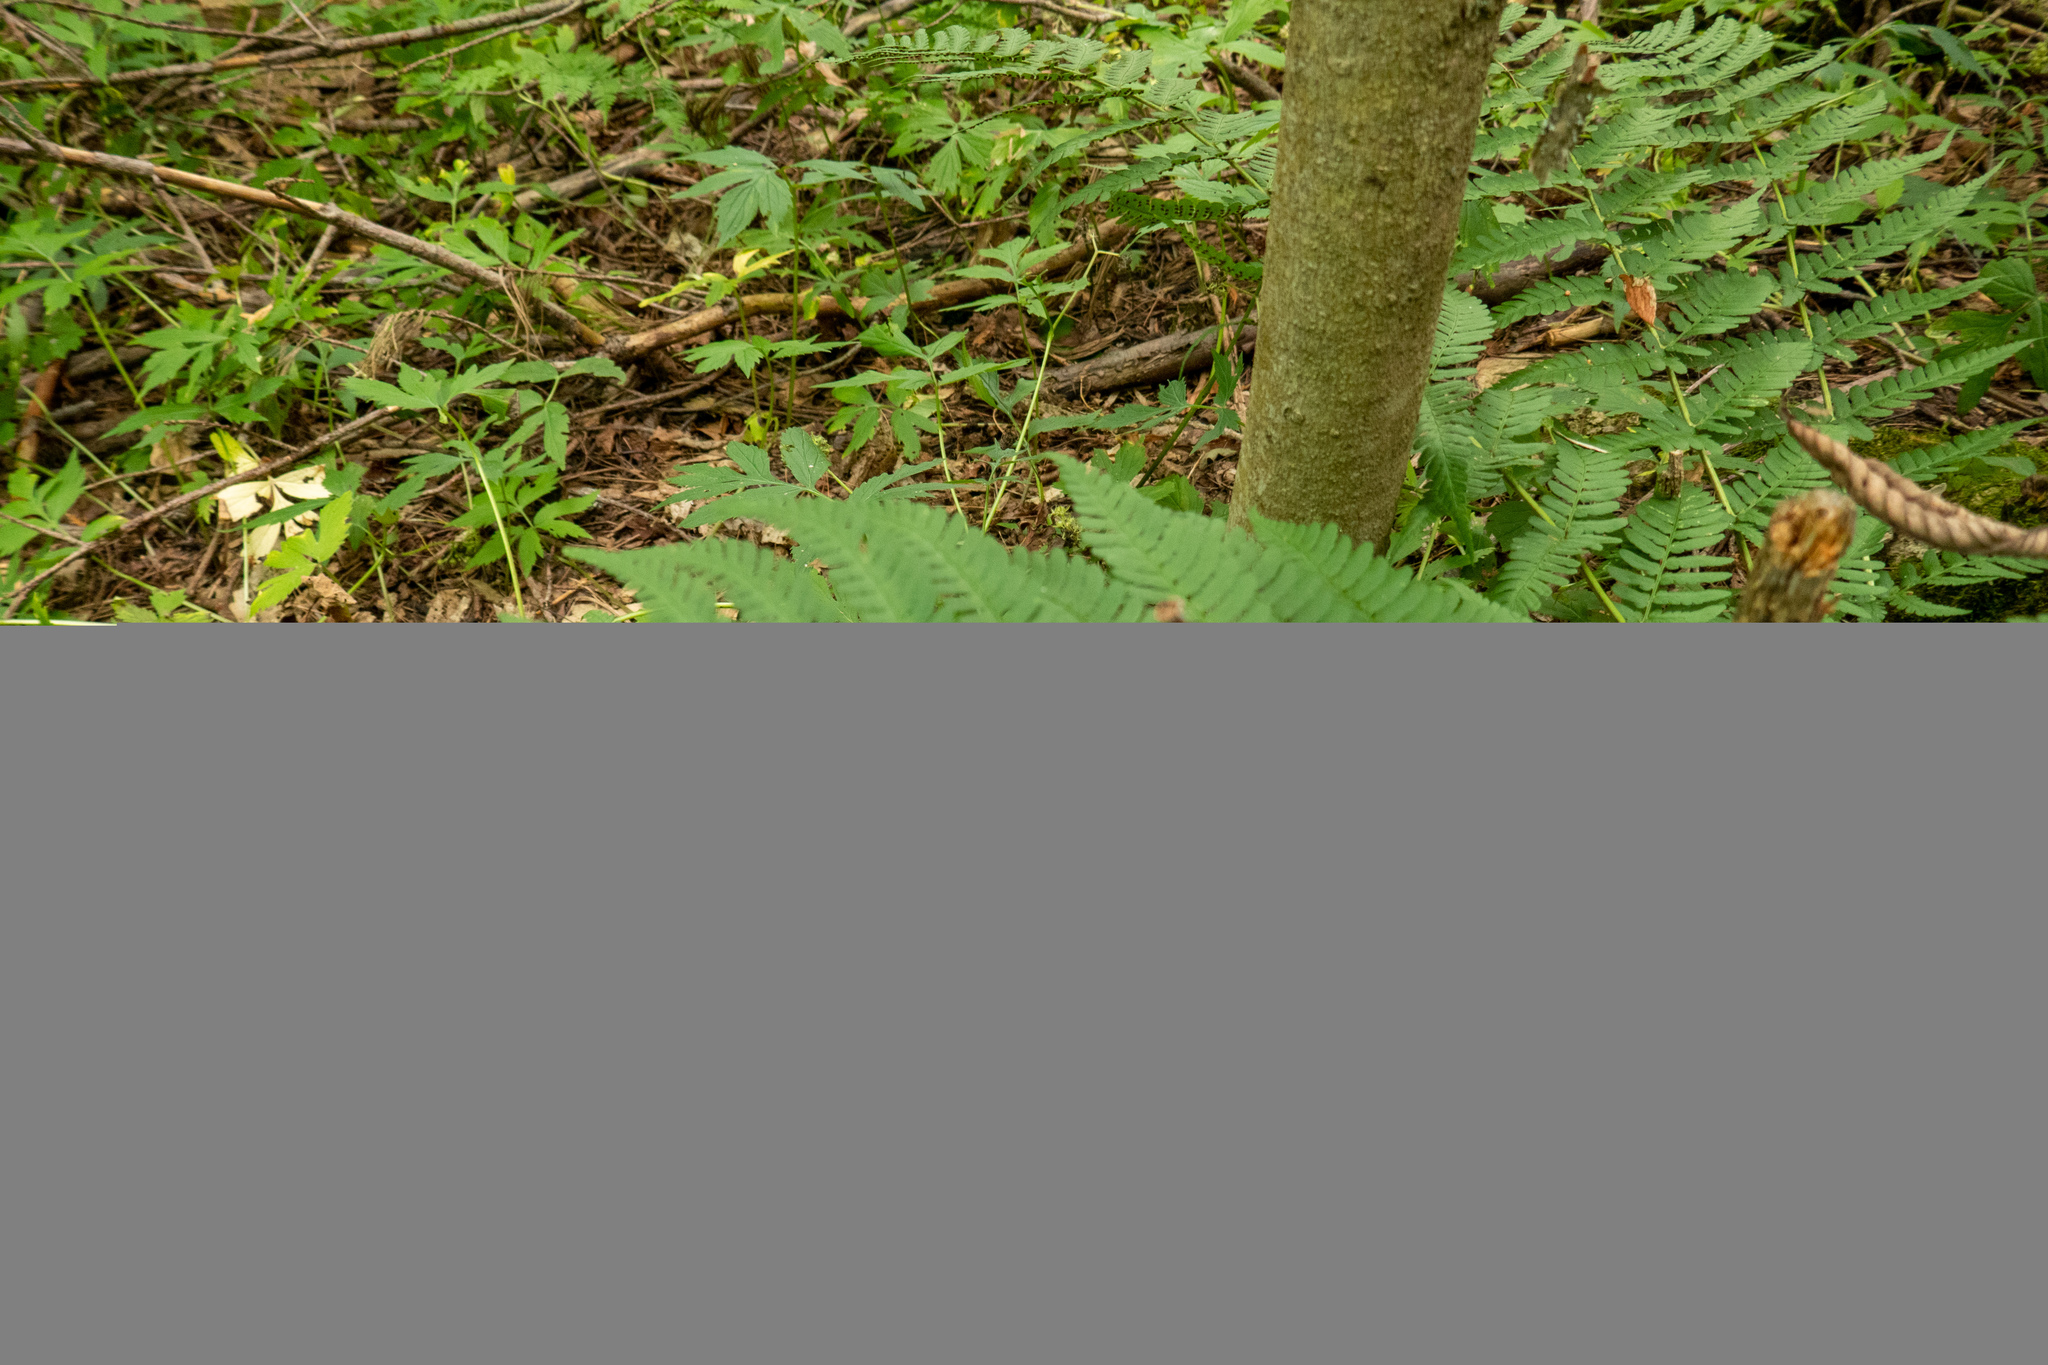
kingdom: Plantae
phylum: Tracheophyta
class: Polypodiopsida
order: Polypodiales
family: Dryopteridaceae
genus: Dryopteris
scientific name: Dryopteris marginalis
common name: Marginal wood fern
